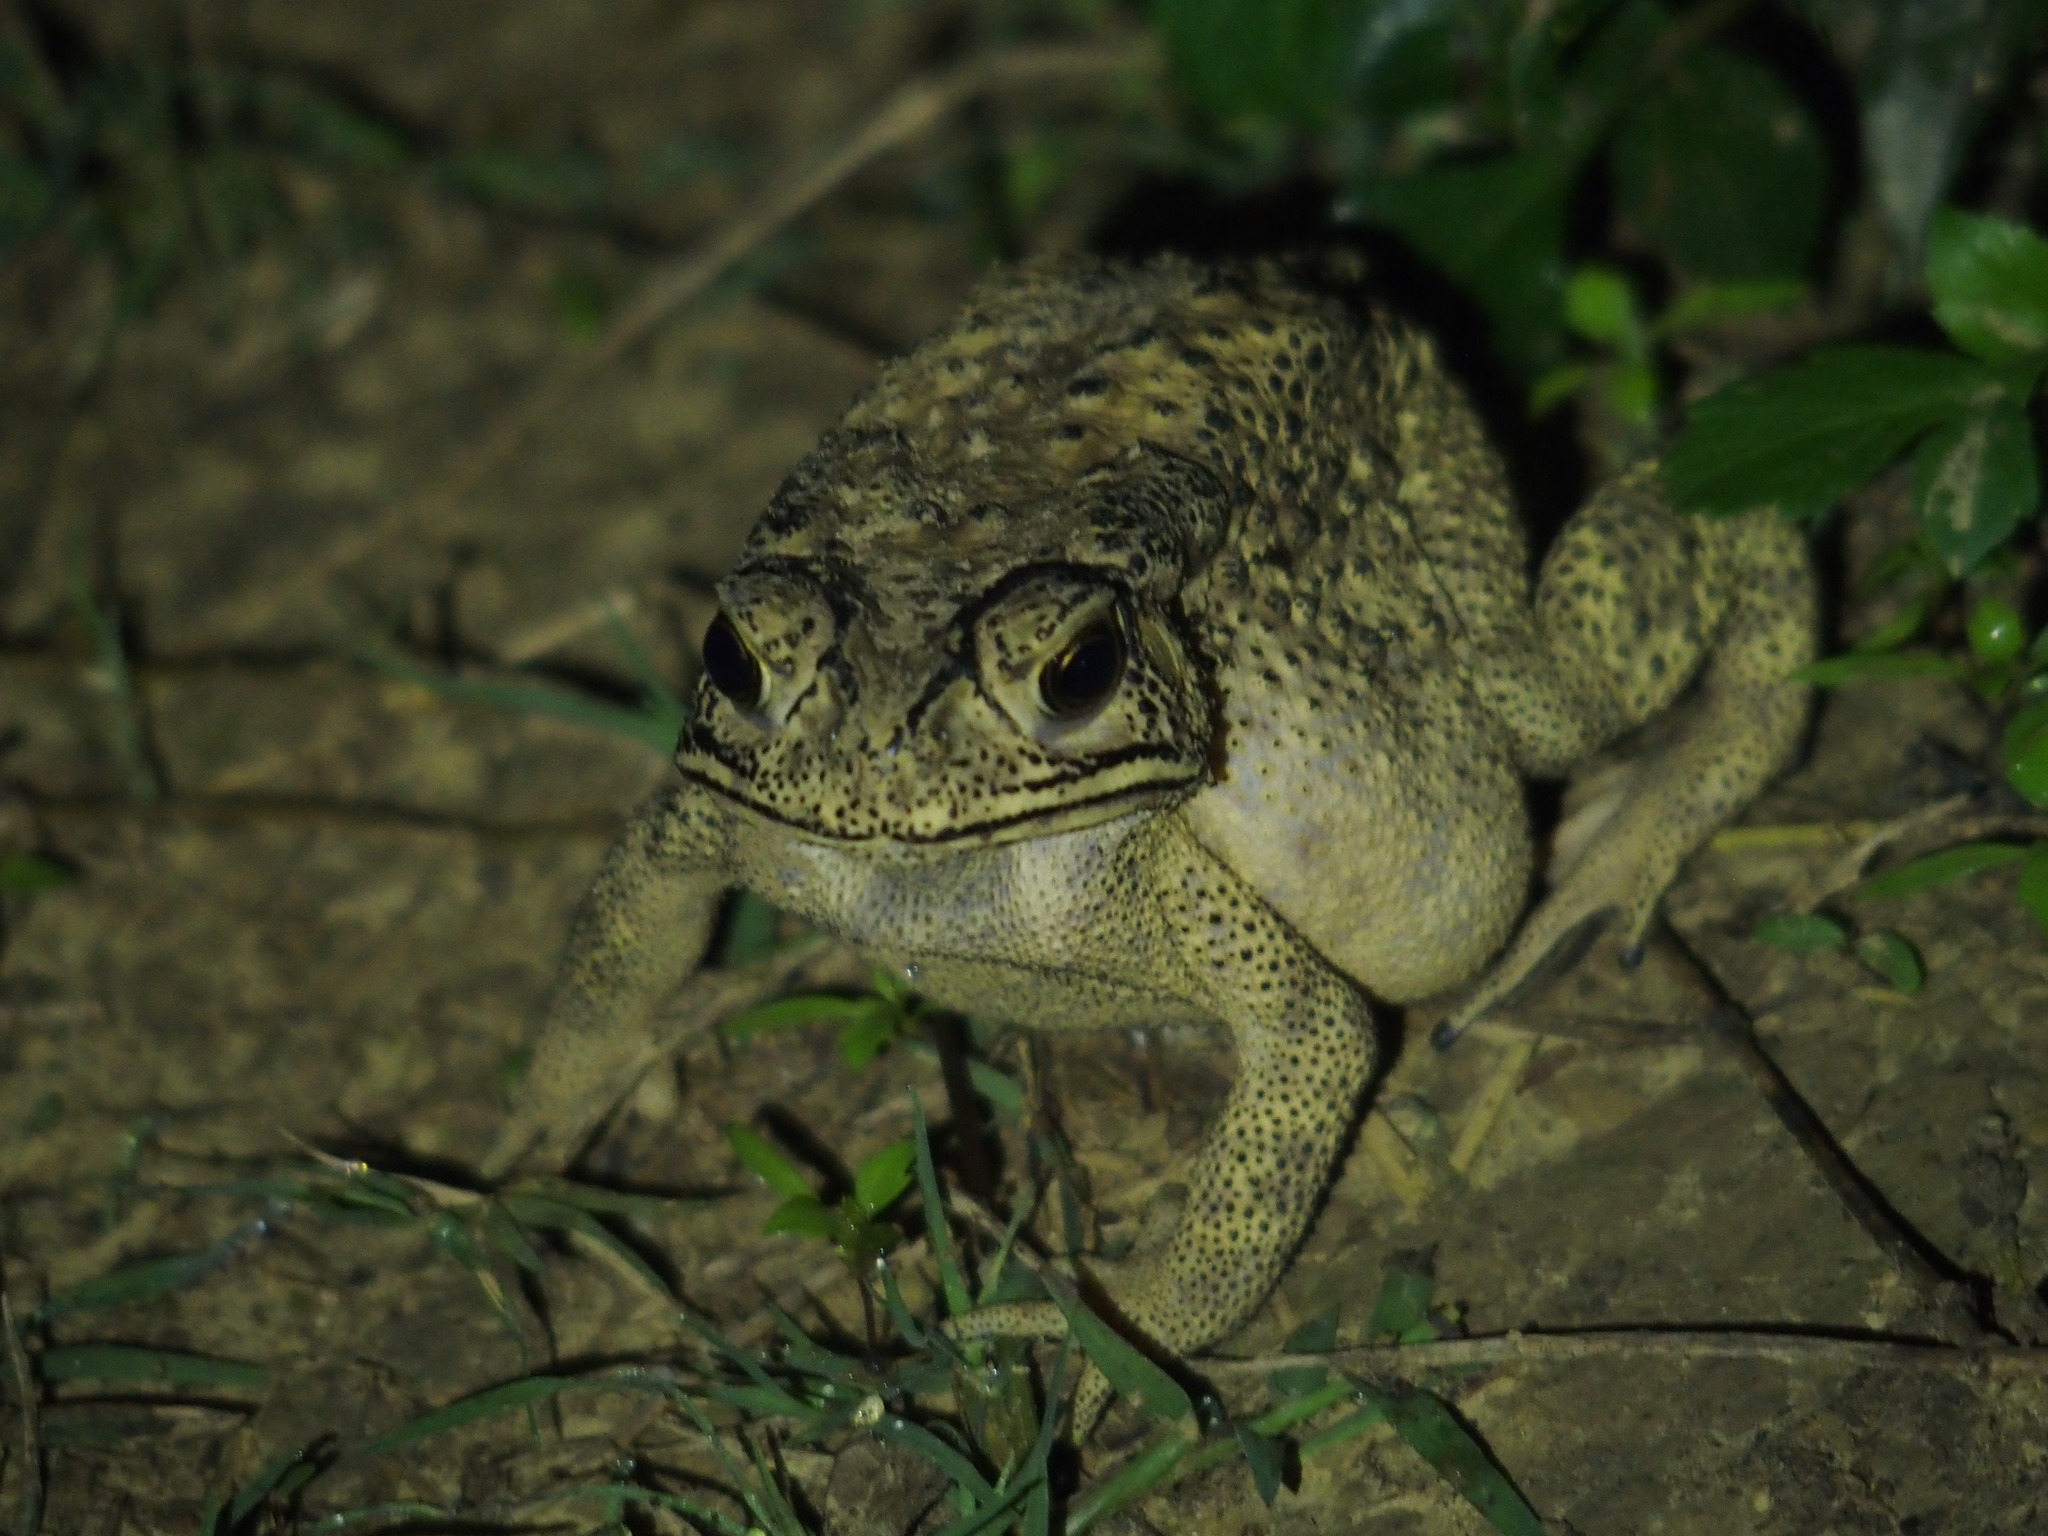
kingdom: Animalia
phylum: Chordata
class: Amphibia
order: Anura
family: Bufonidae
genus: Duttaphrynus
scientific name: Duttaphrynus melanostictus
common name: Common sunda toad
